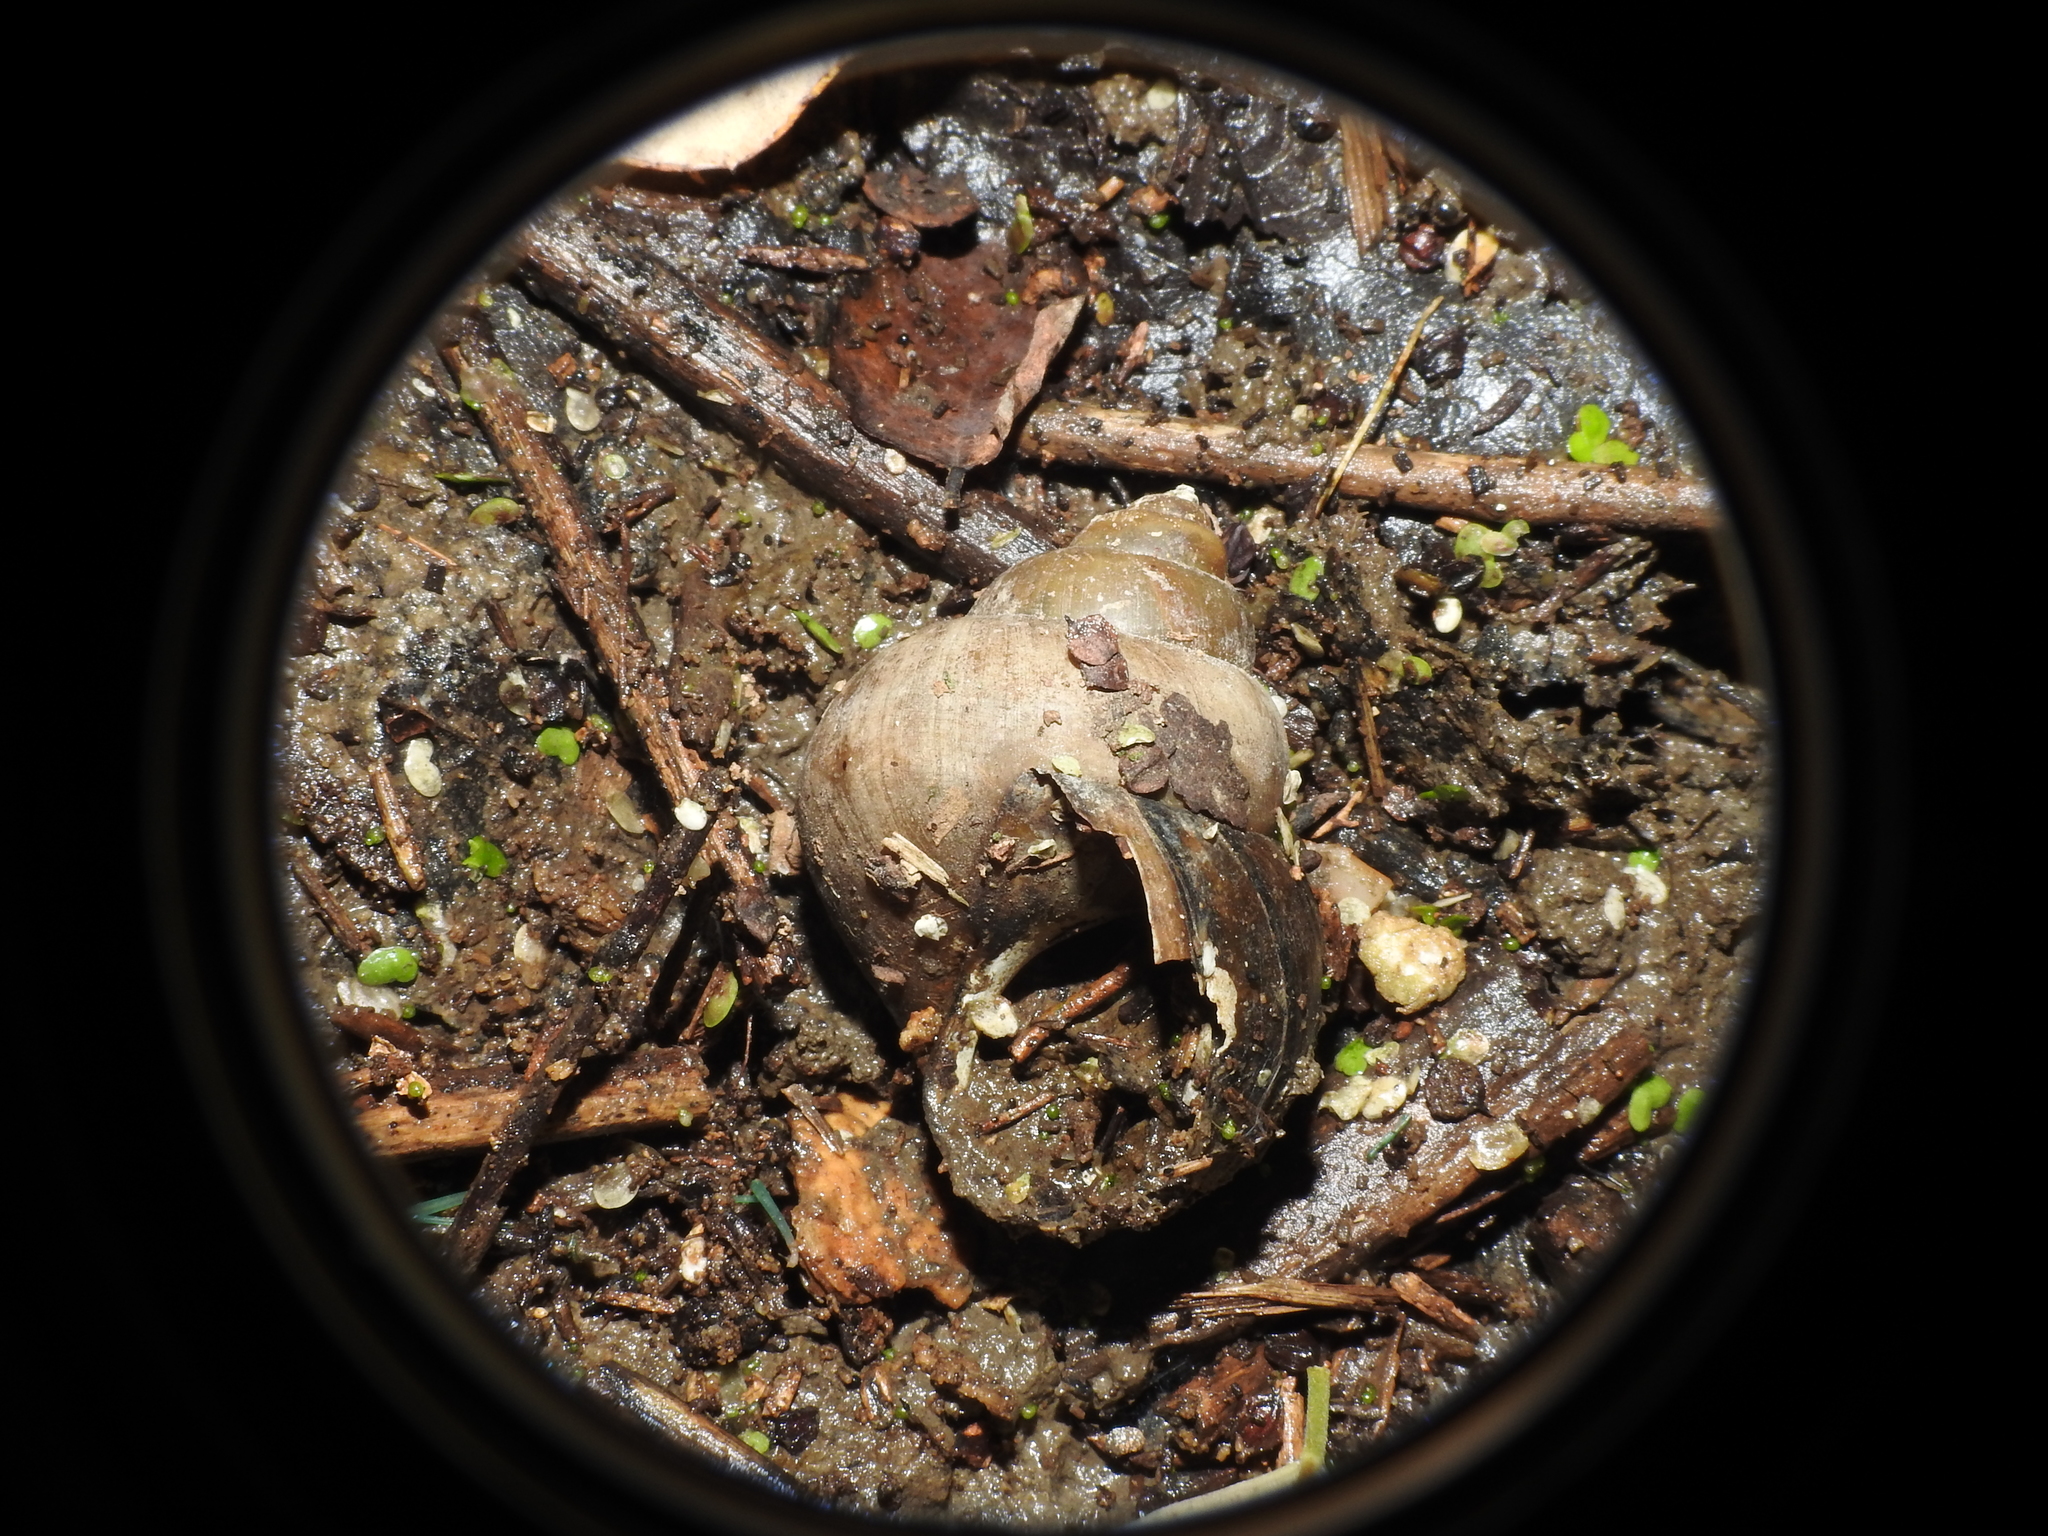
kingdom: Animalia
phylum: Mollusca
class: Gastropoda
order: Architaenioglossa
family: Viviparidae
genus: Cipangopaludina
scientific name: Cipangopaludina chinensis
